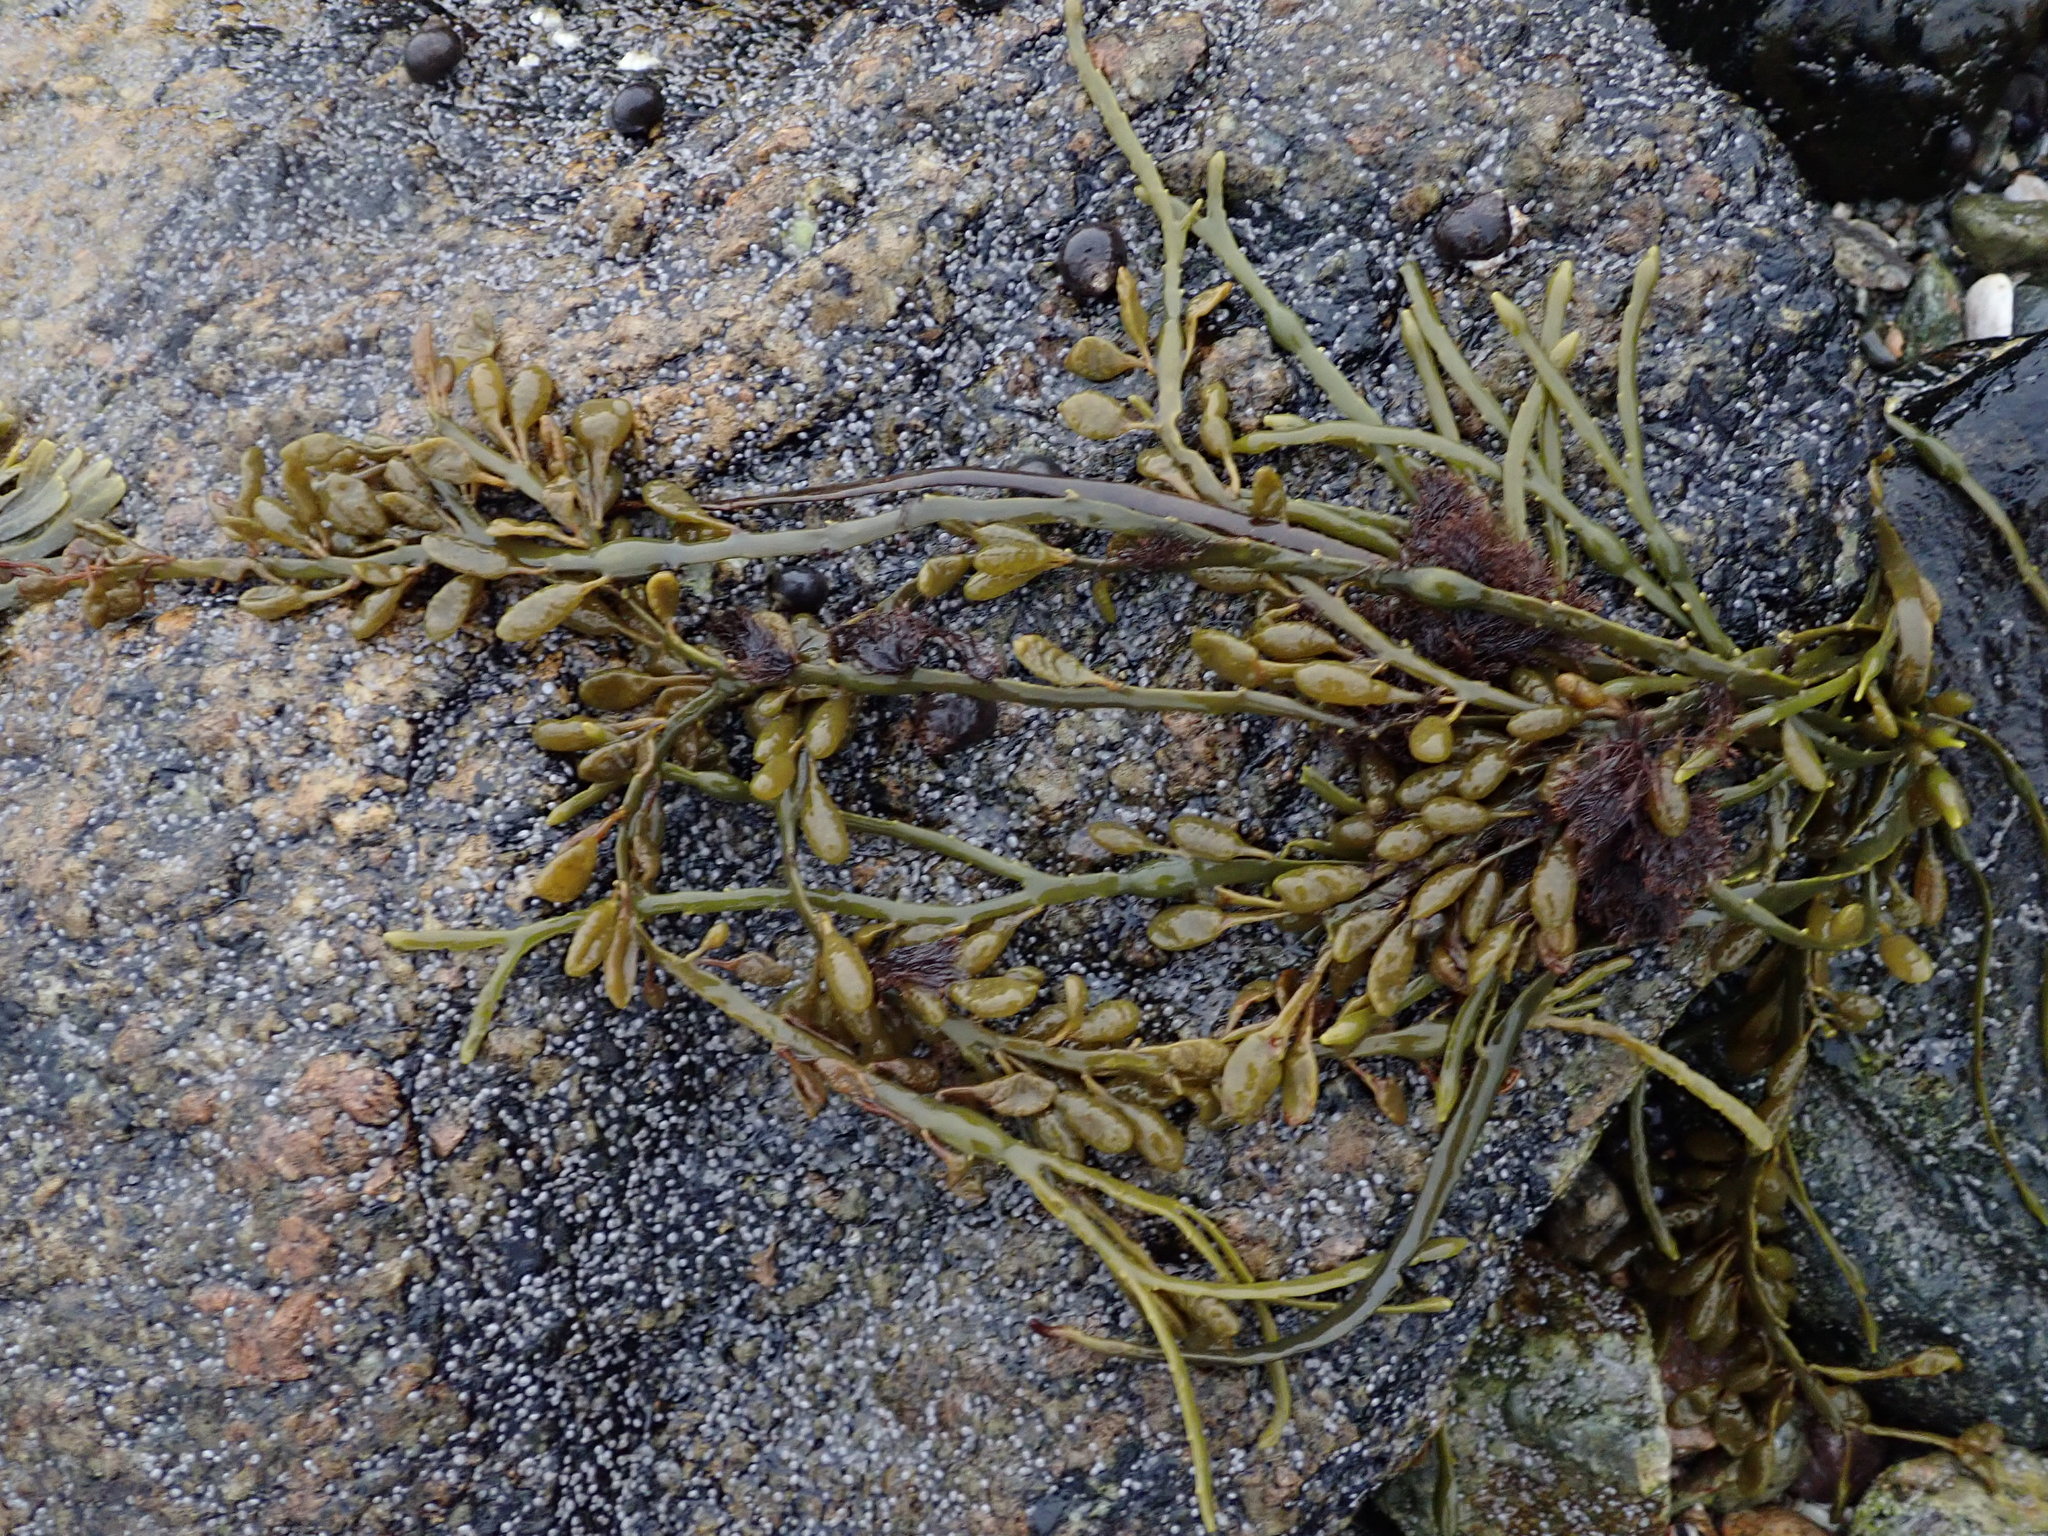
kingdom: Chromista
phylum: Ochrophyta
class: Phaeophyceae
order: Fucales
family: Fucaceae
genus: Ascophyllum
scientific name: Ascophyllum nodosum
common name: Knotted wrack
